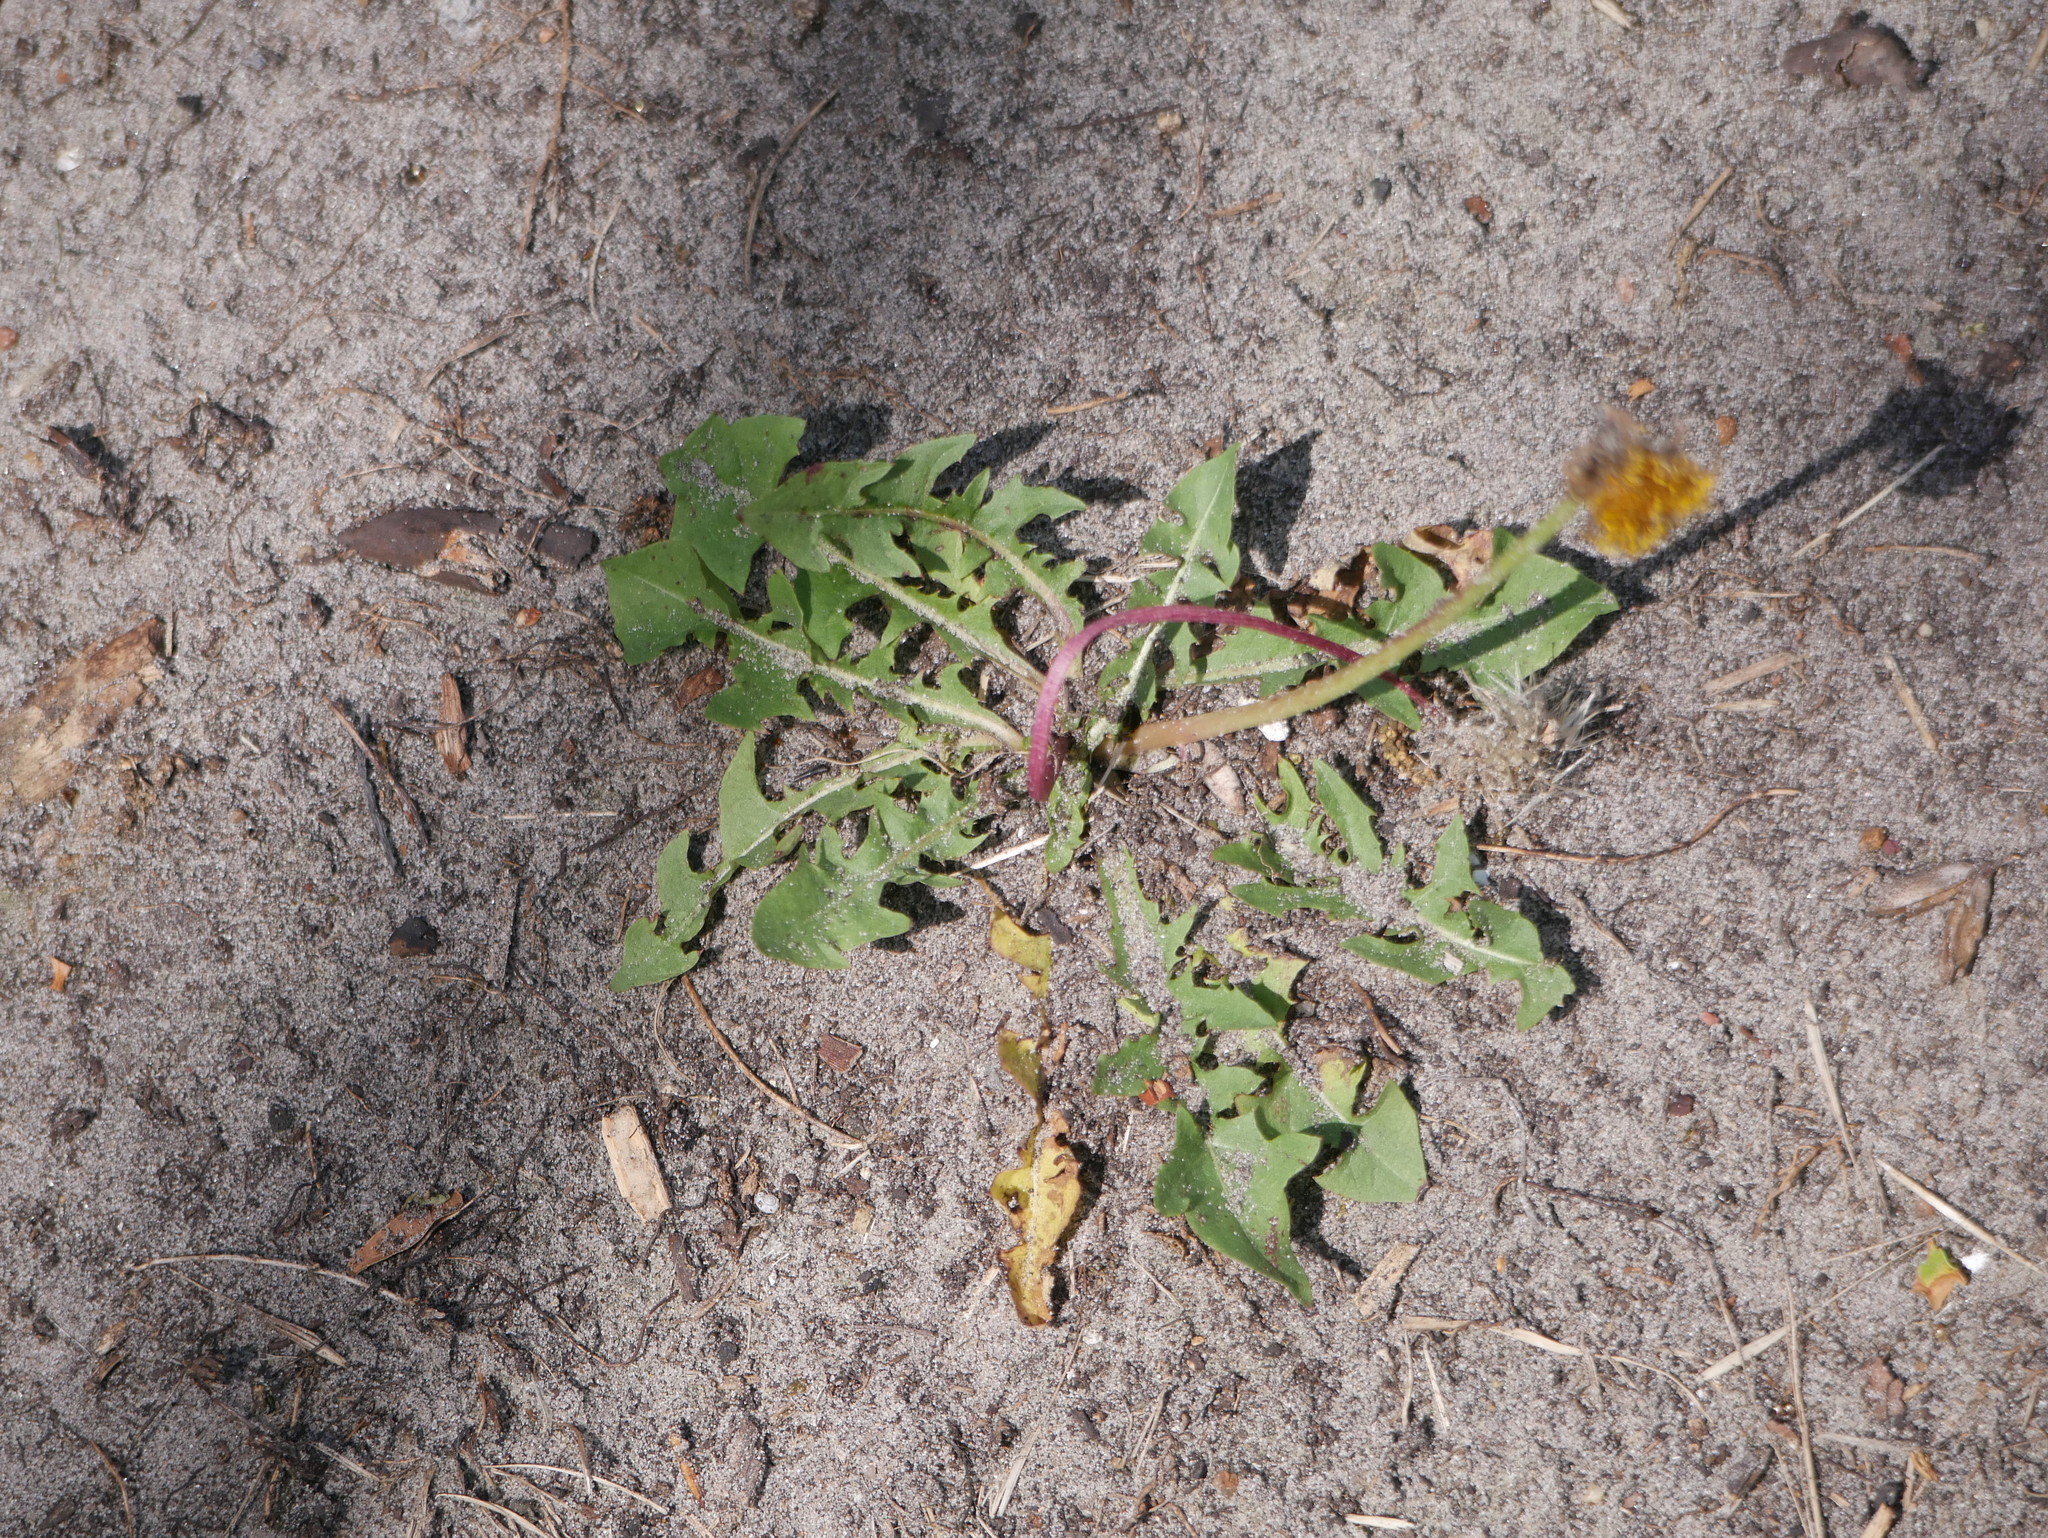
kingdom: Plantae
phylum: Tracheophyta
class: Magnoliopsida
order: Asterales
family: Asteraceae
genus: Taraxacum
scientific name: Taraxacum officinale
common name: Common dandelion
